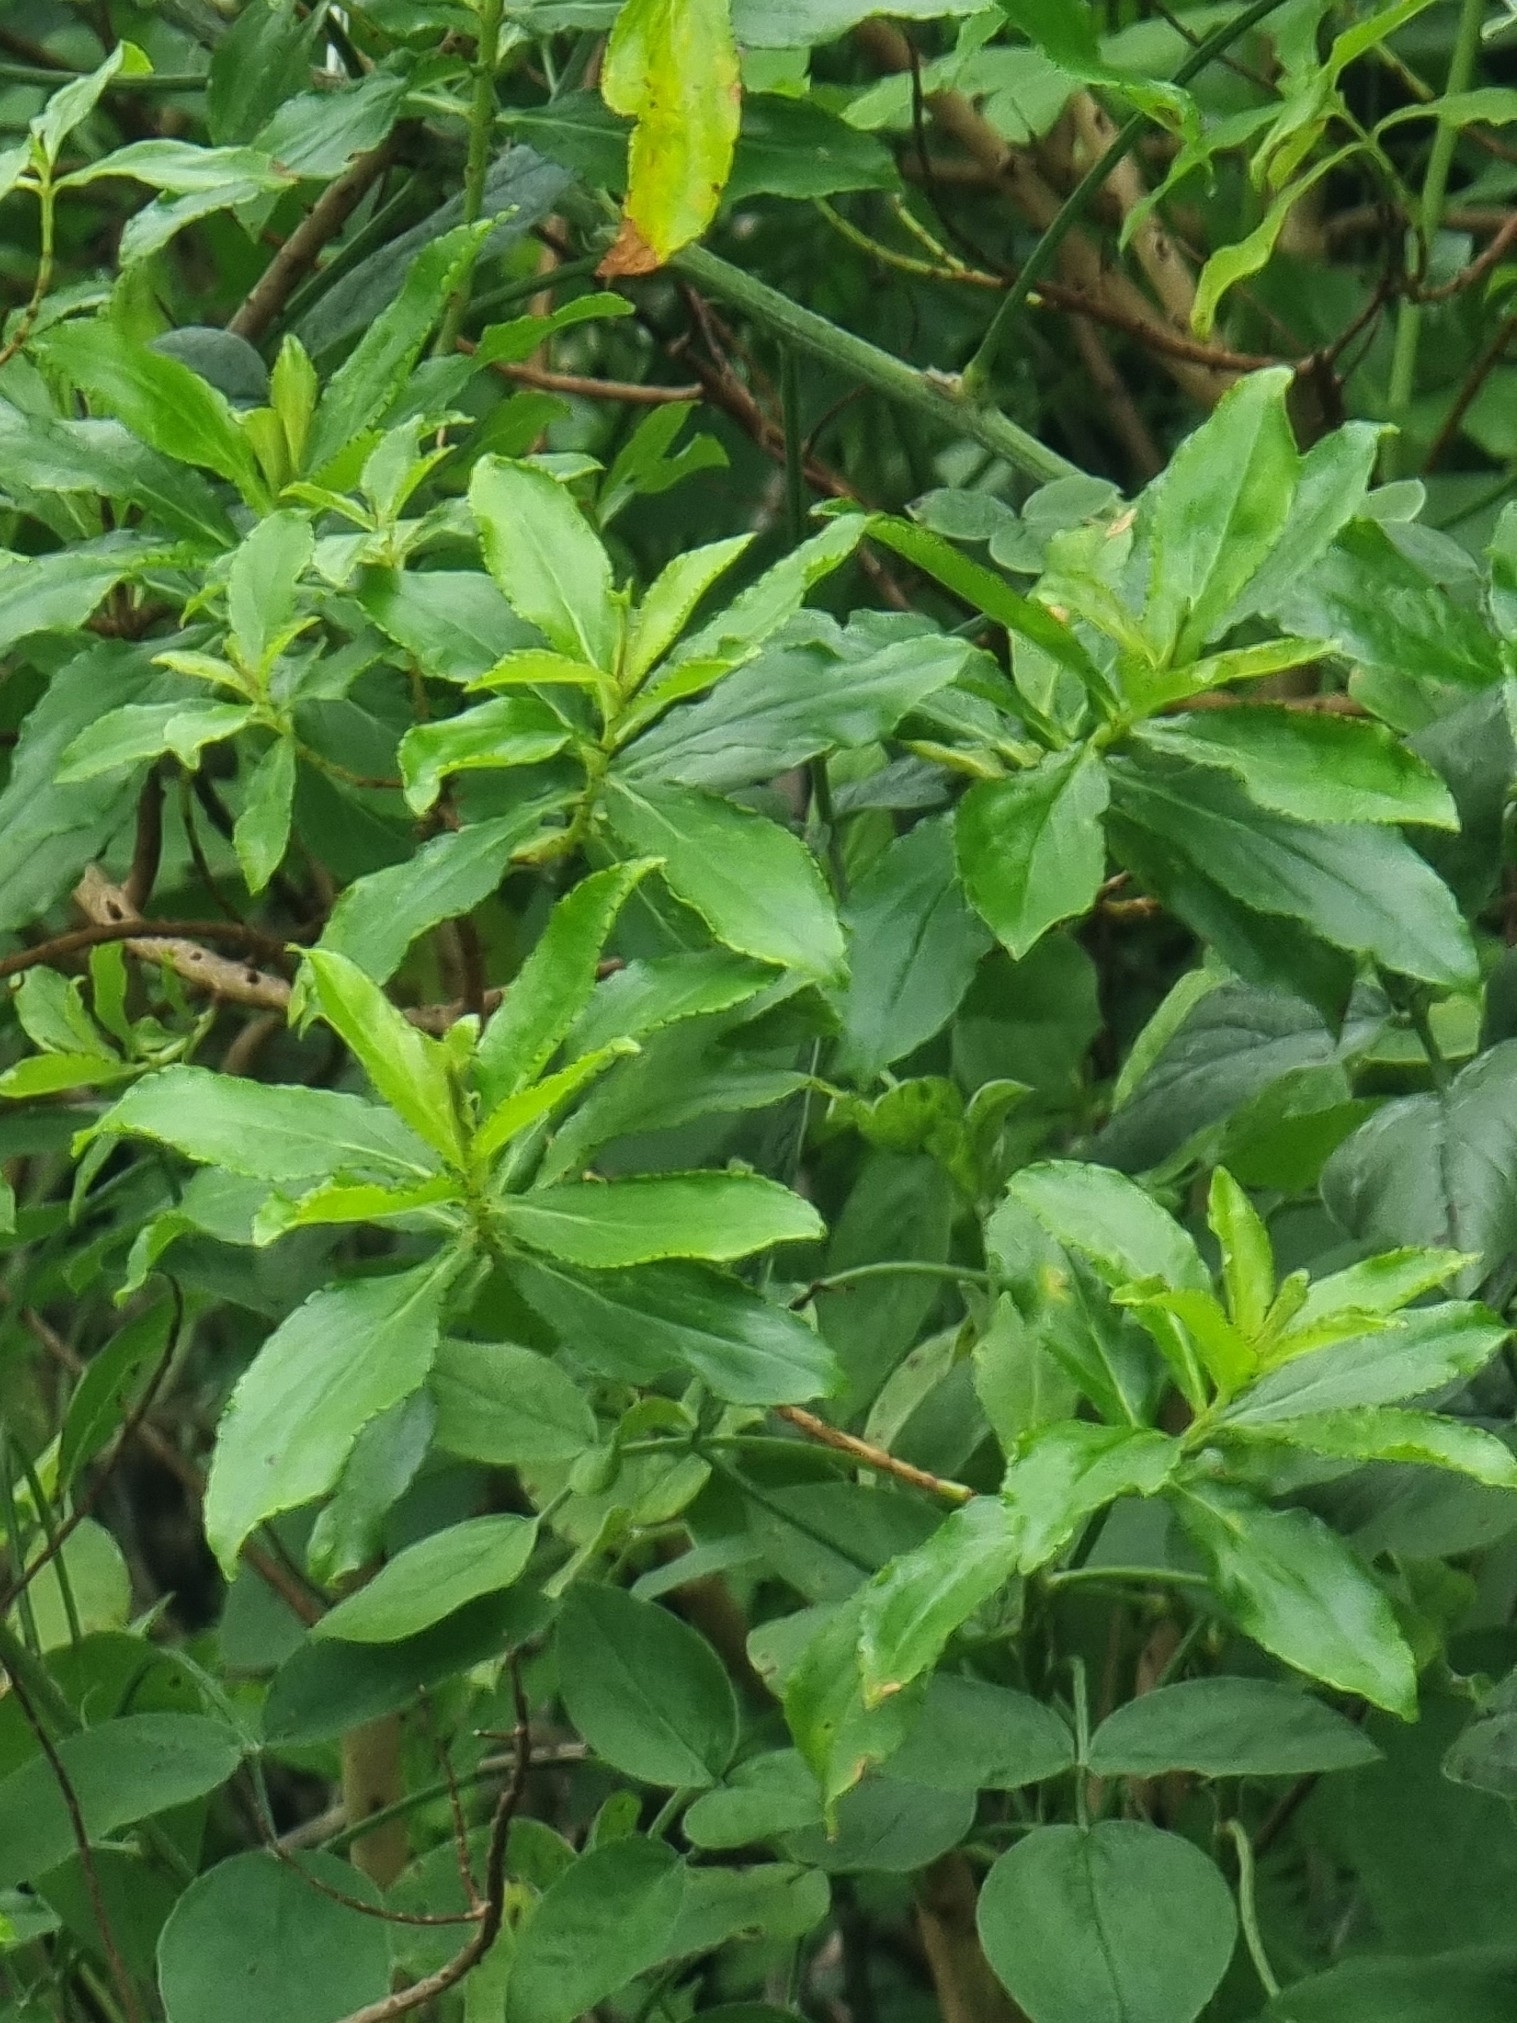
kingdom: Plantae
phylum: Tracheophyta
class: Magnoliopsida
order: Malpighiales
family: Hypericaceae
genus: Hypericum
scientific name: Hypericum glandulosum
